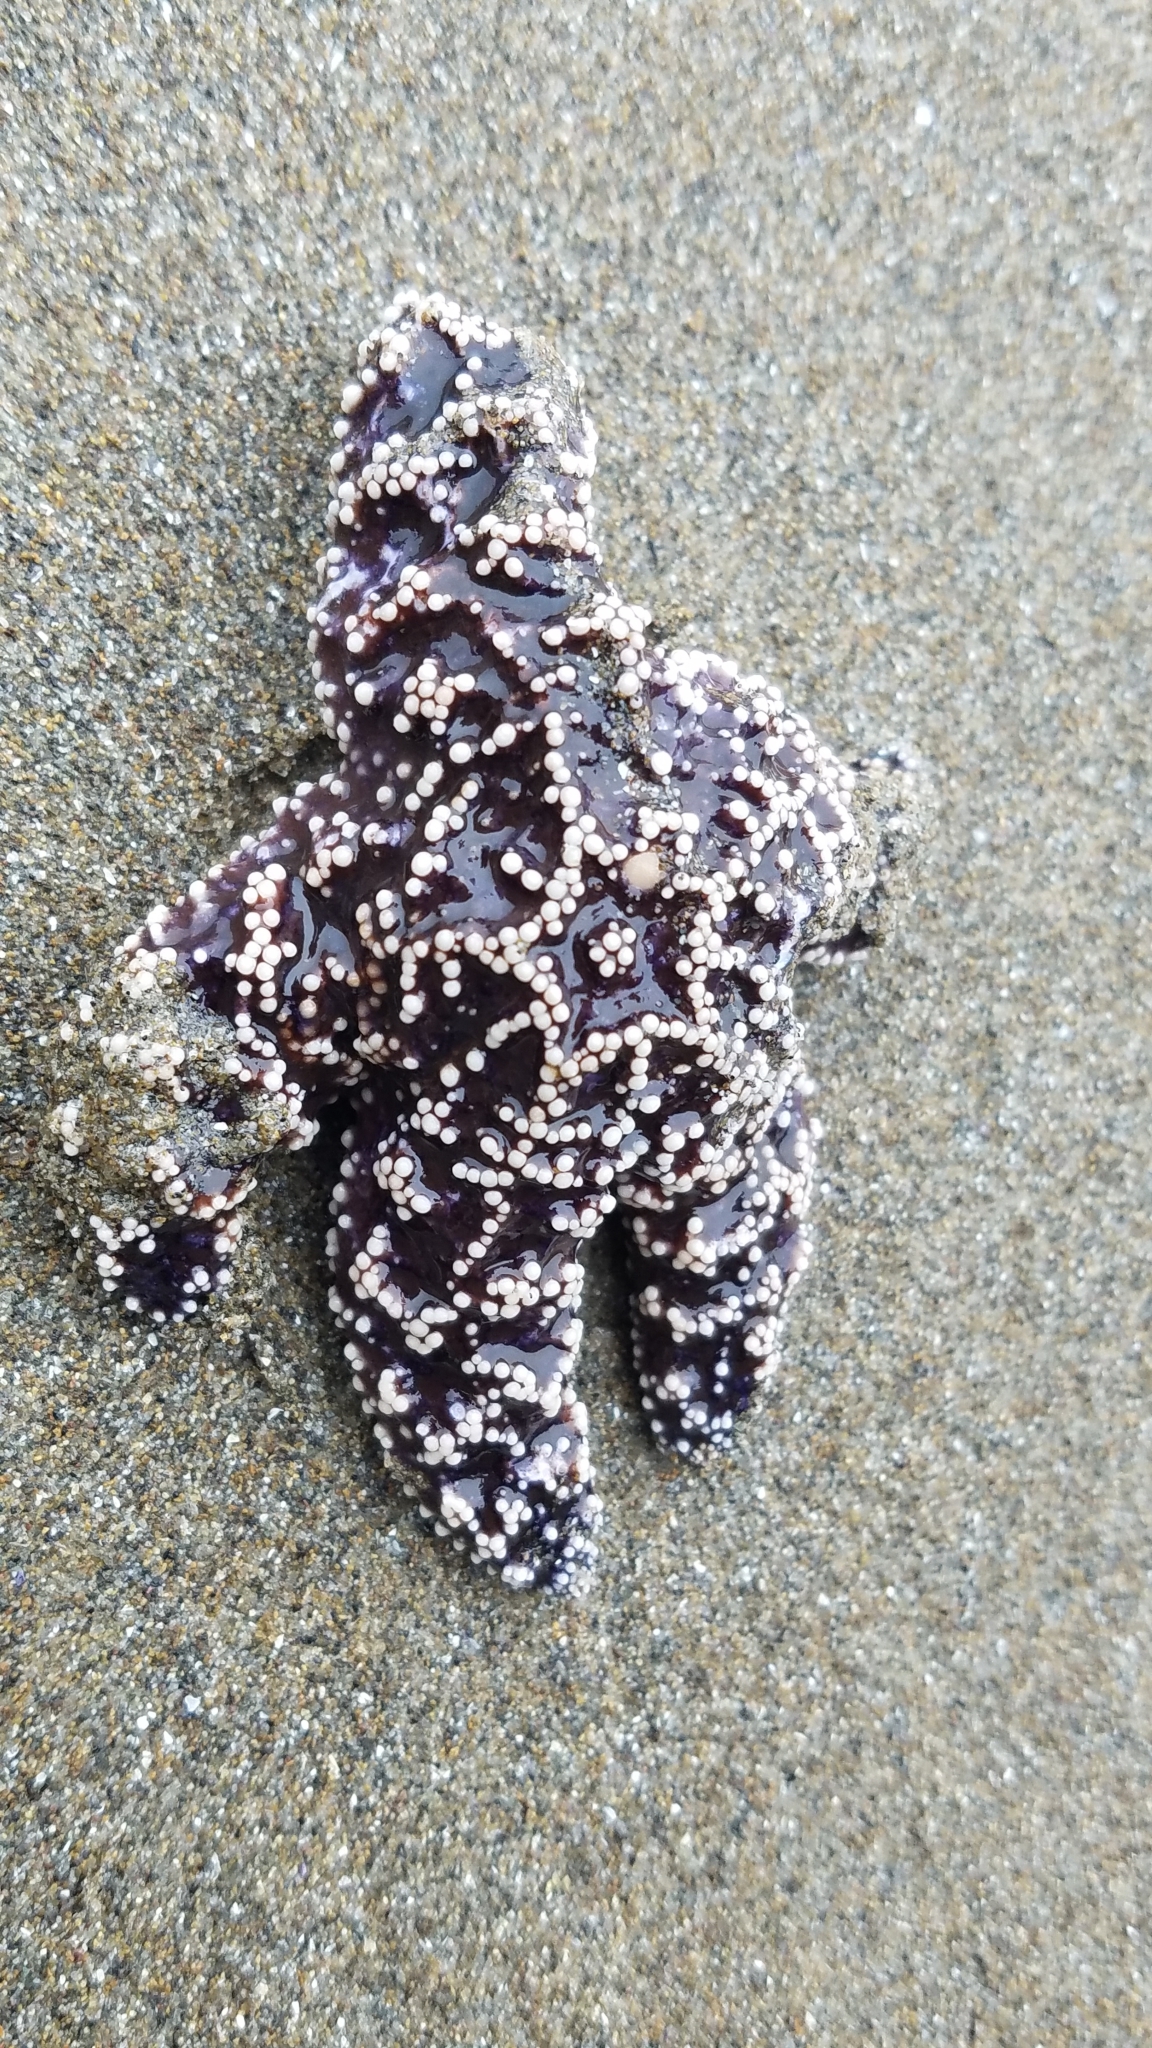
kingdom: Animalia
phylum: Echinodermata
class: Asteroidea
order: Forcipulatida
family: Asteriidae
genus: Pisaster
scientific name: Pisaster ochraceus
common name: Ochre stars
